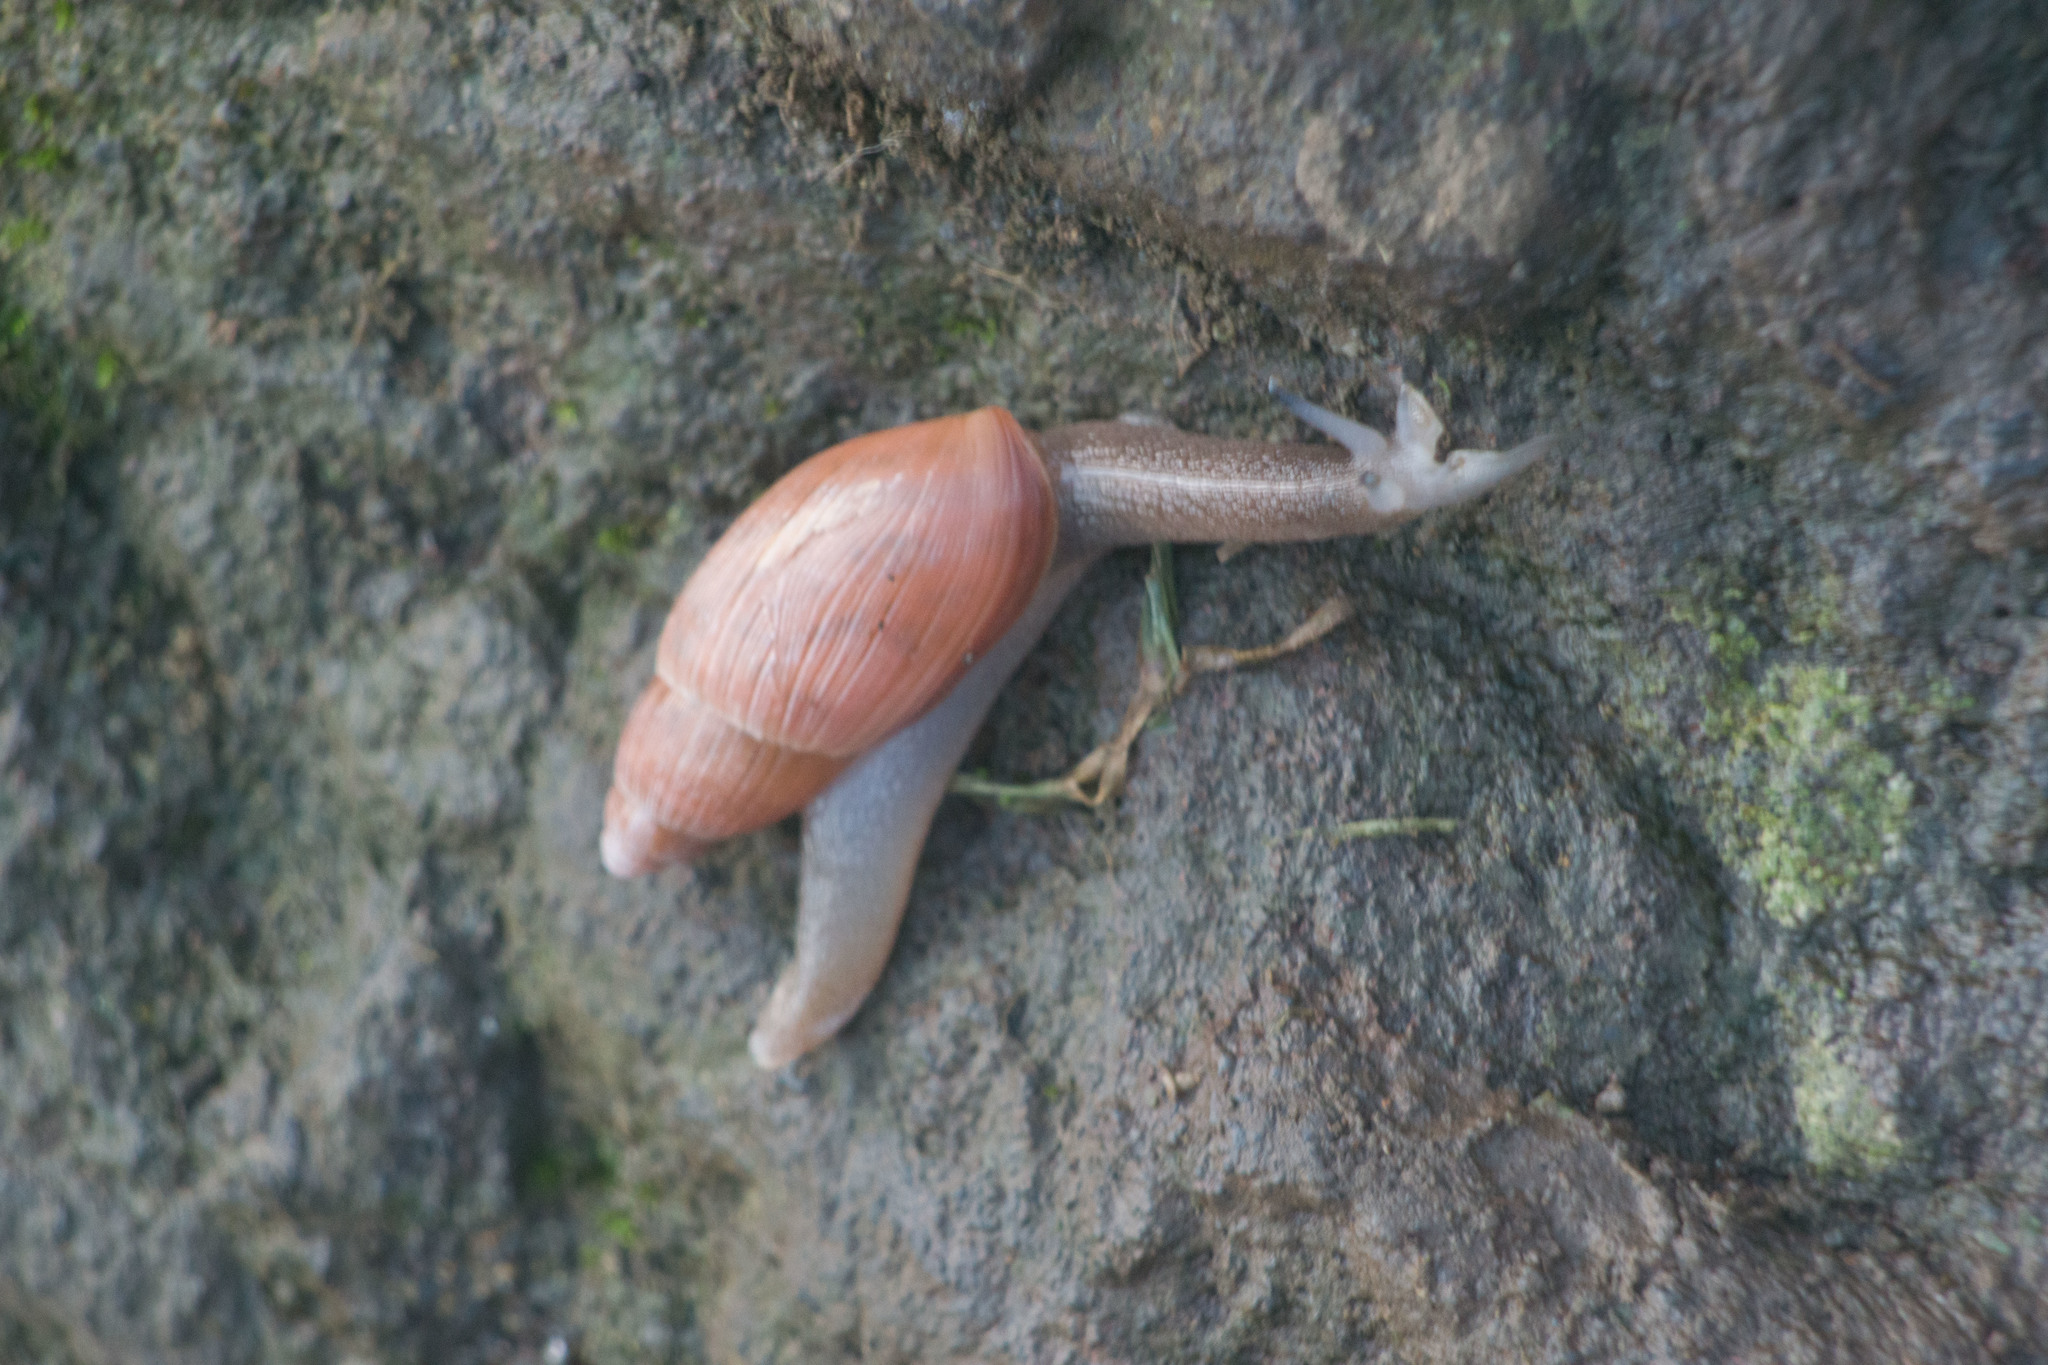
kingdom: Animalia
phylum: Mollusca
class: Gastropoda
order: Stylommatophora
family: Spiraxidae
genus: Euglandina
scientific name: Euglandina rosea
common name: Rosy wolfsnail
